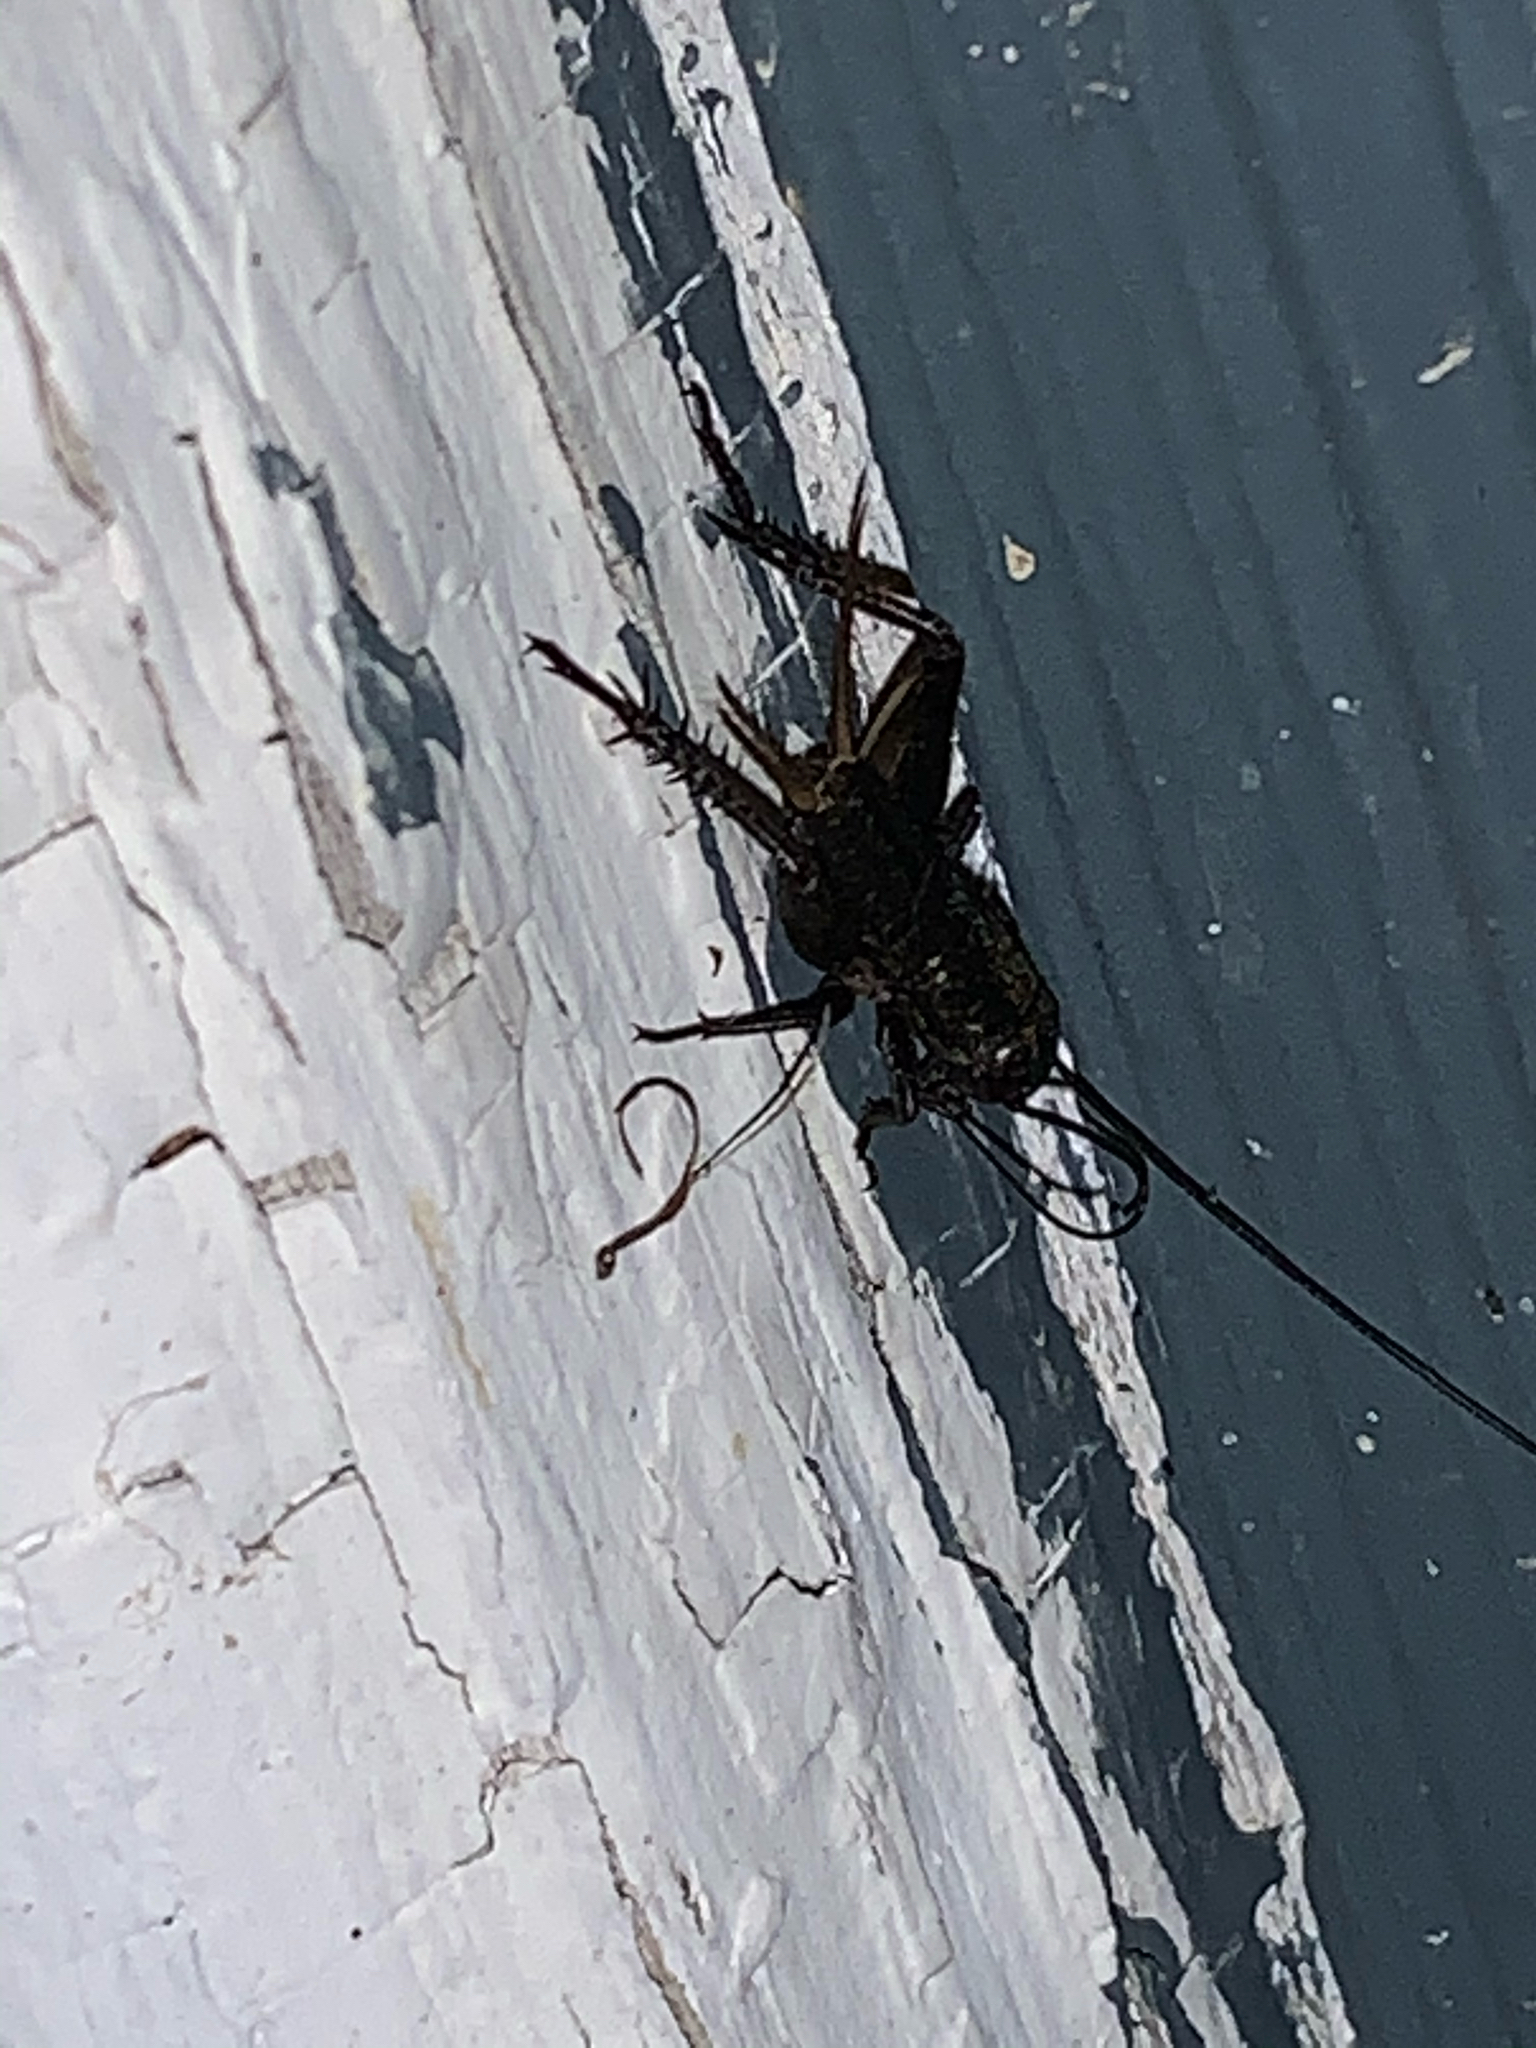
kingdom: Animalia
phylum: Arthropoda
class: Insecta
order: Orthoptera
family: Gryllidae
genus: Gryllus
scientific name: Gryllus
